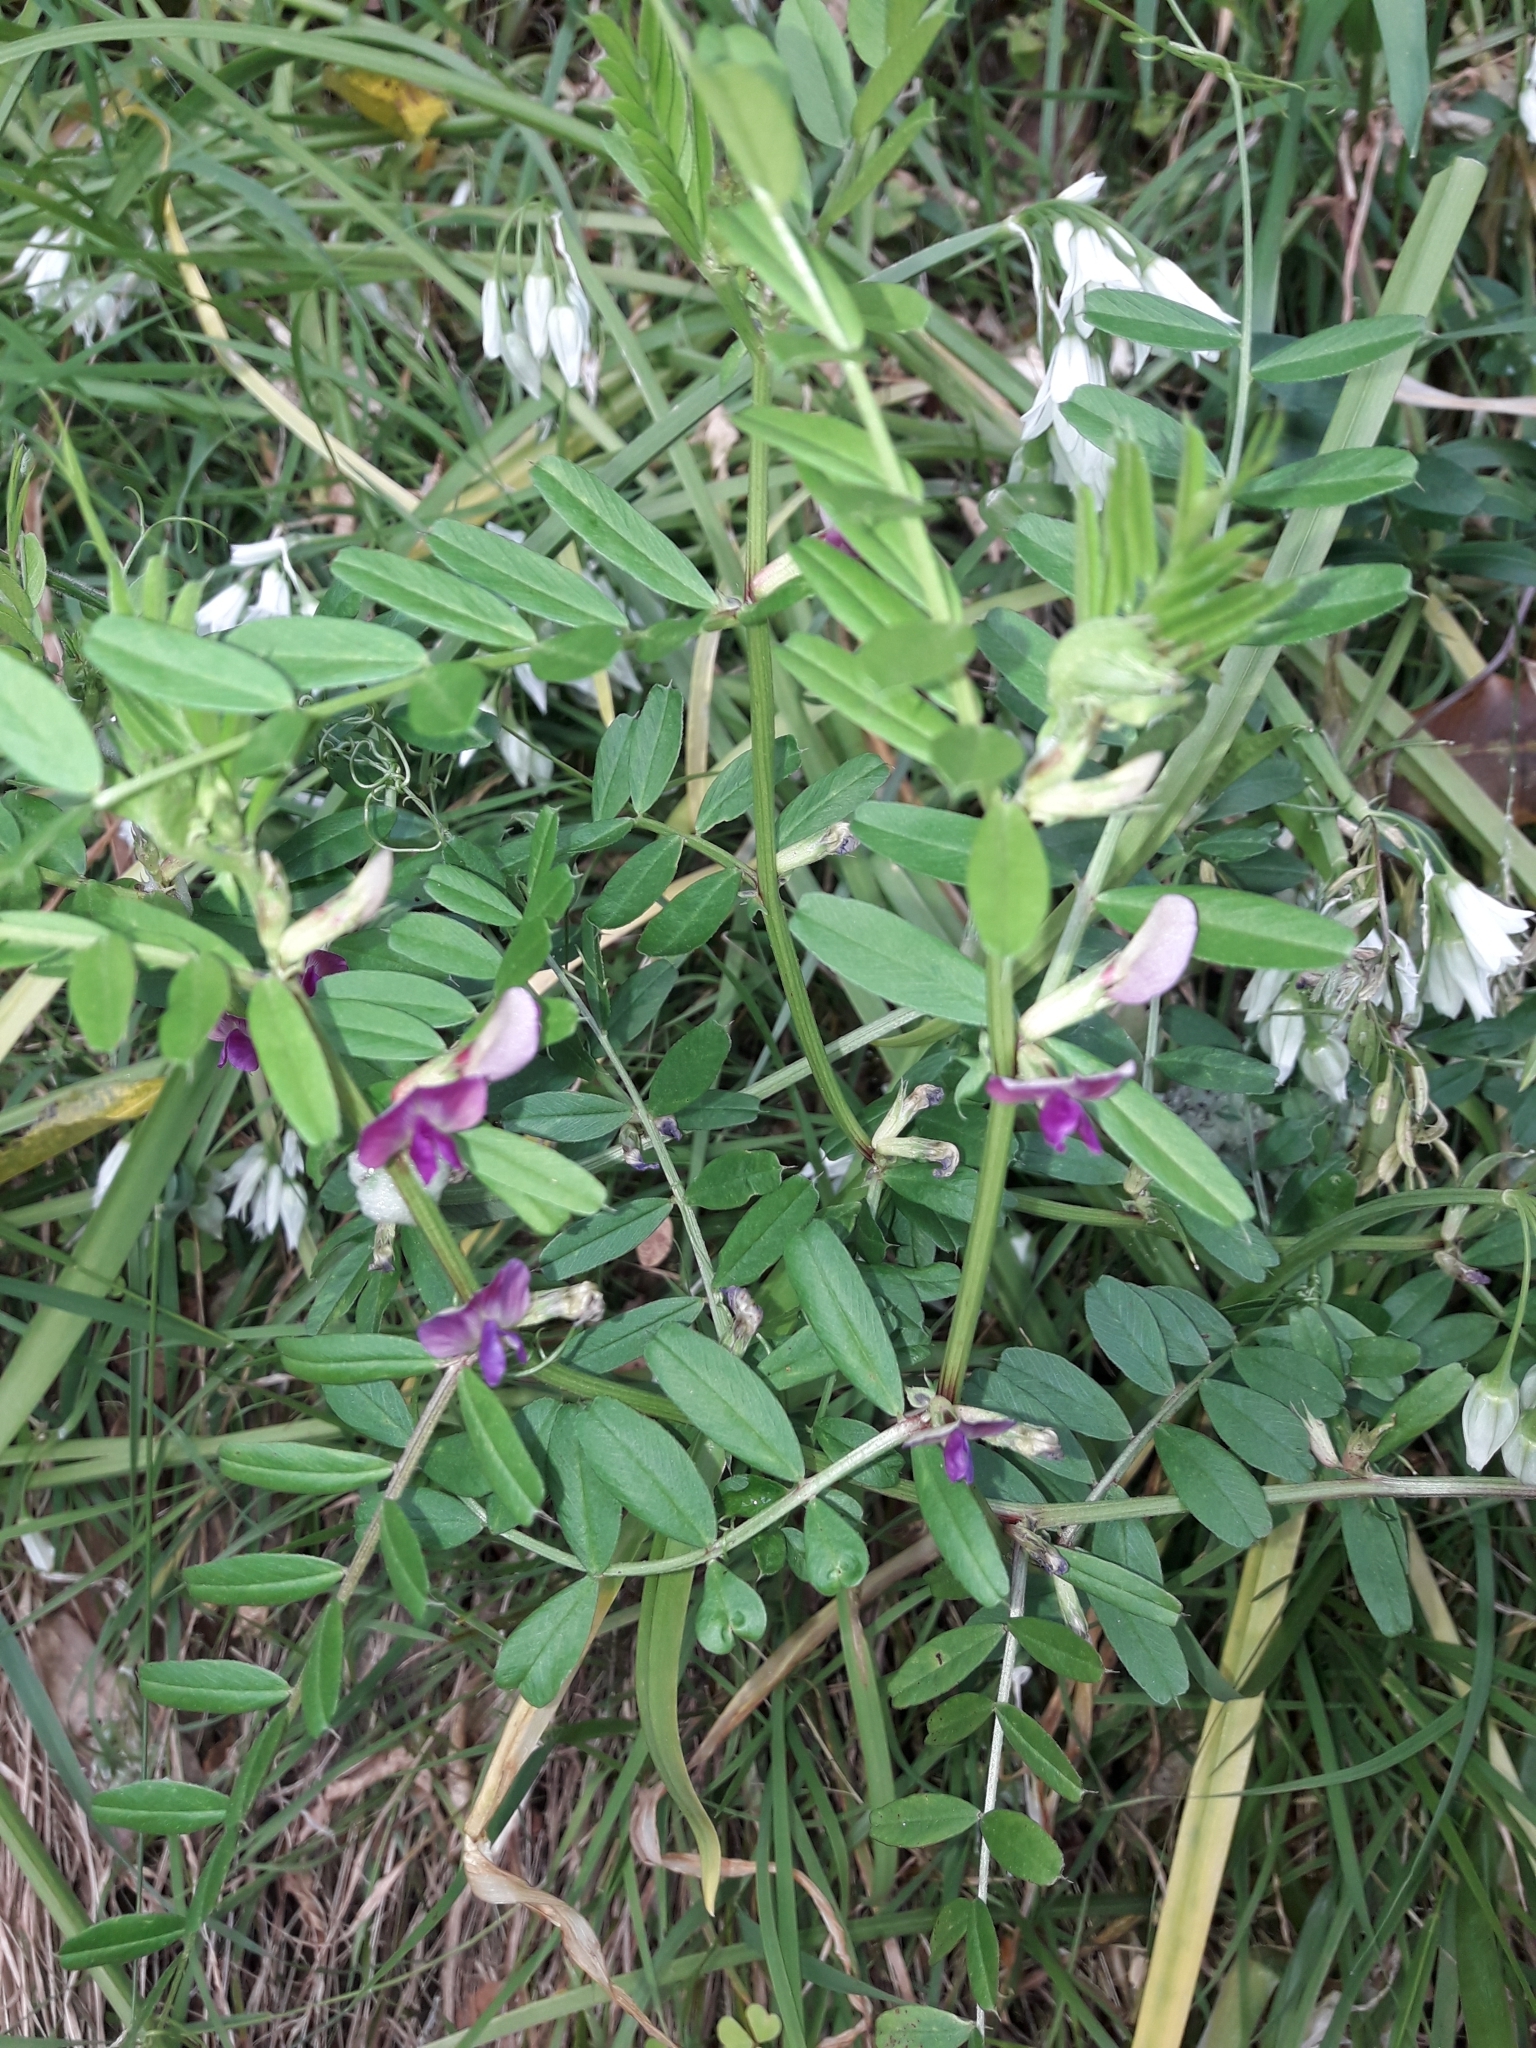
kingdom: Plantae
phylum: Tracheophyta
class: Magnoliopsida
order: Fabales
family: Fabaceae
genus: Vicia
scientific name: Vicia sativa
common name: Garden vetch
